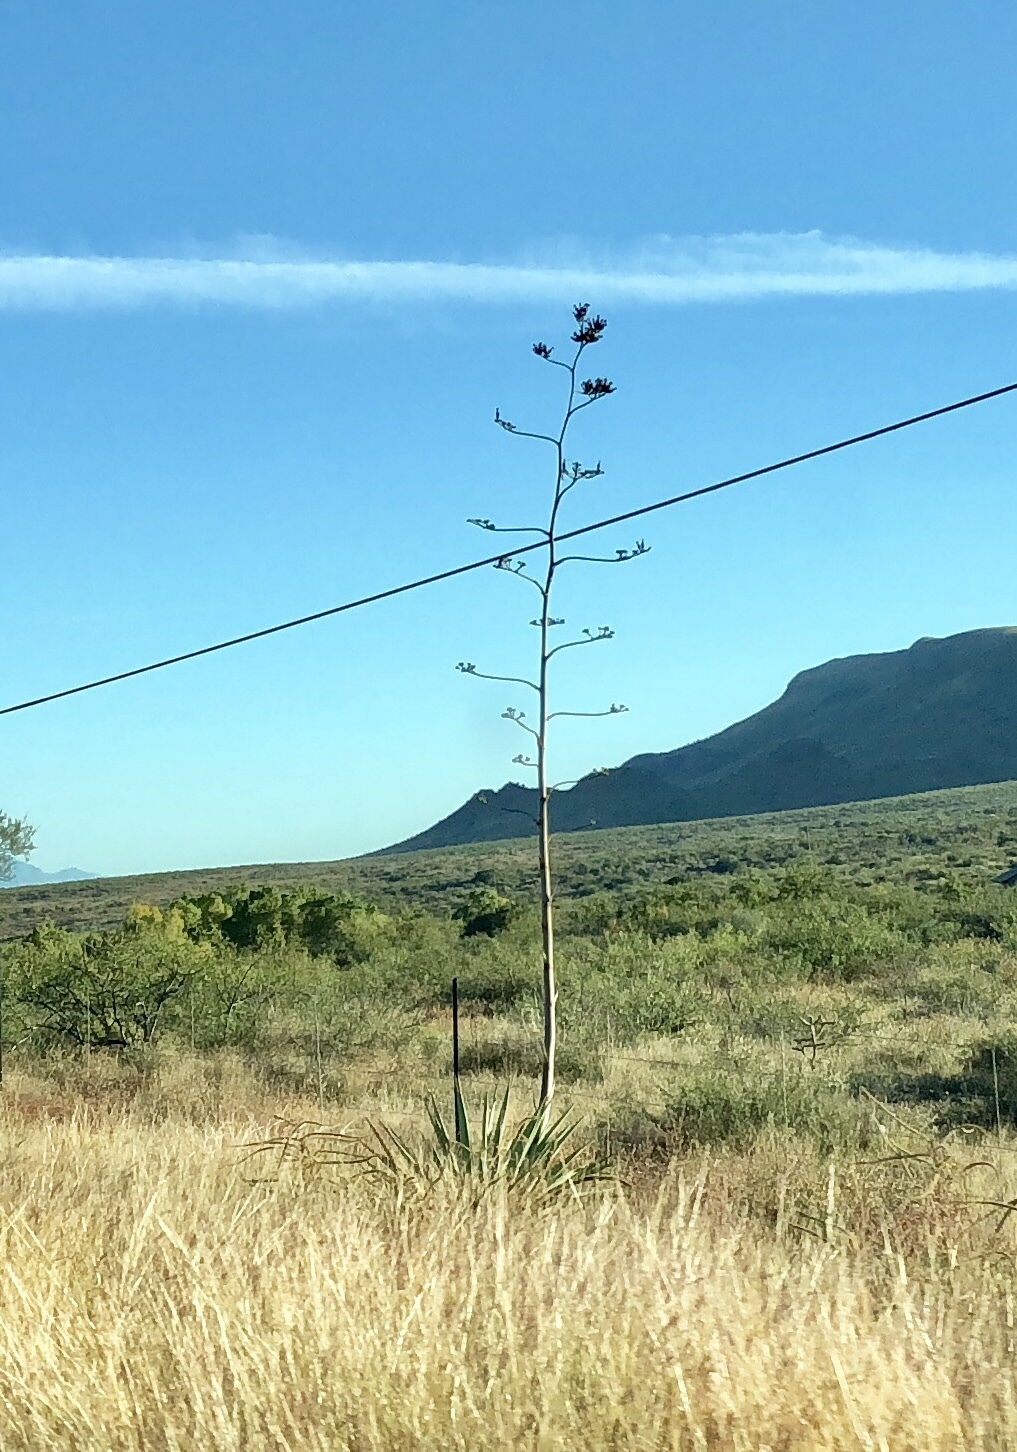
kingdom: Plantae
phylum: Tracheophyta
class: Liliopsida
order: Asparagales
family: Asparagaceae
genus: Agave
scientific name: Agave palmeri
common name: Palmer agave
